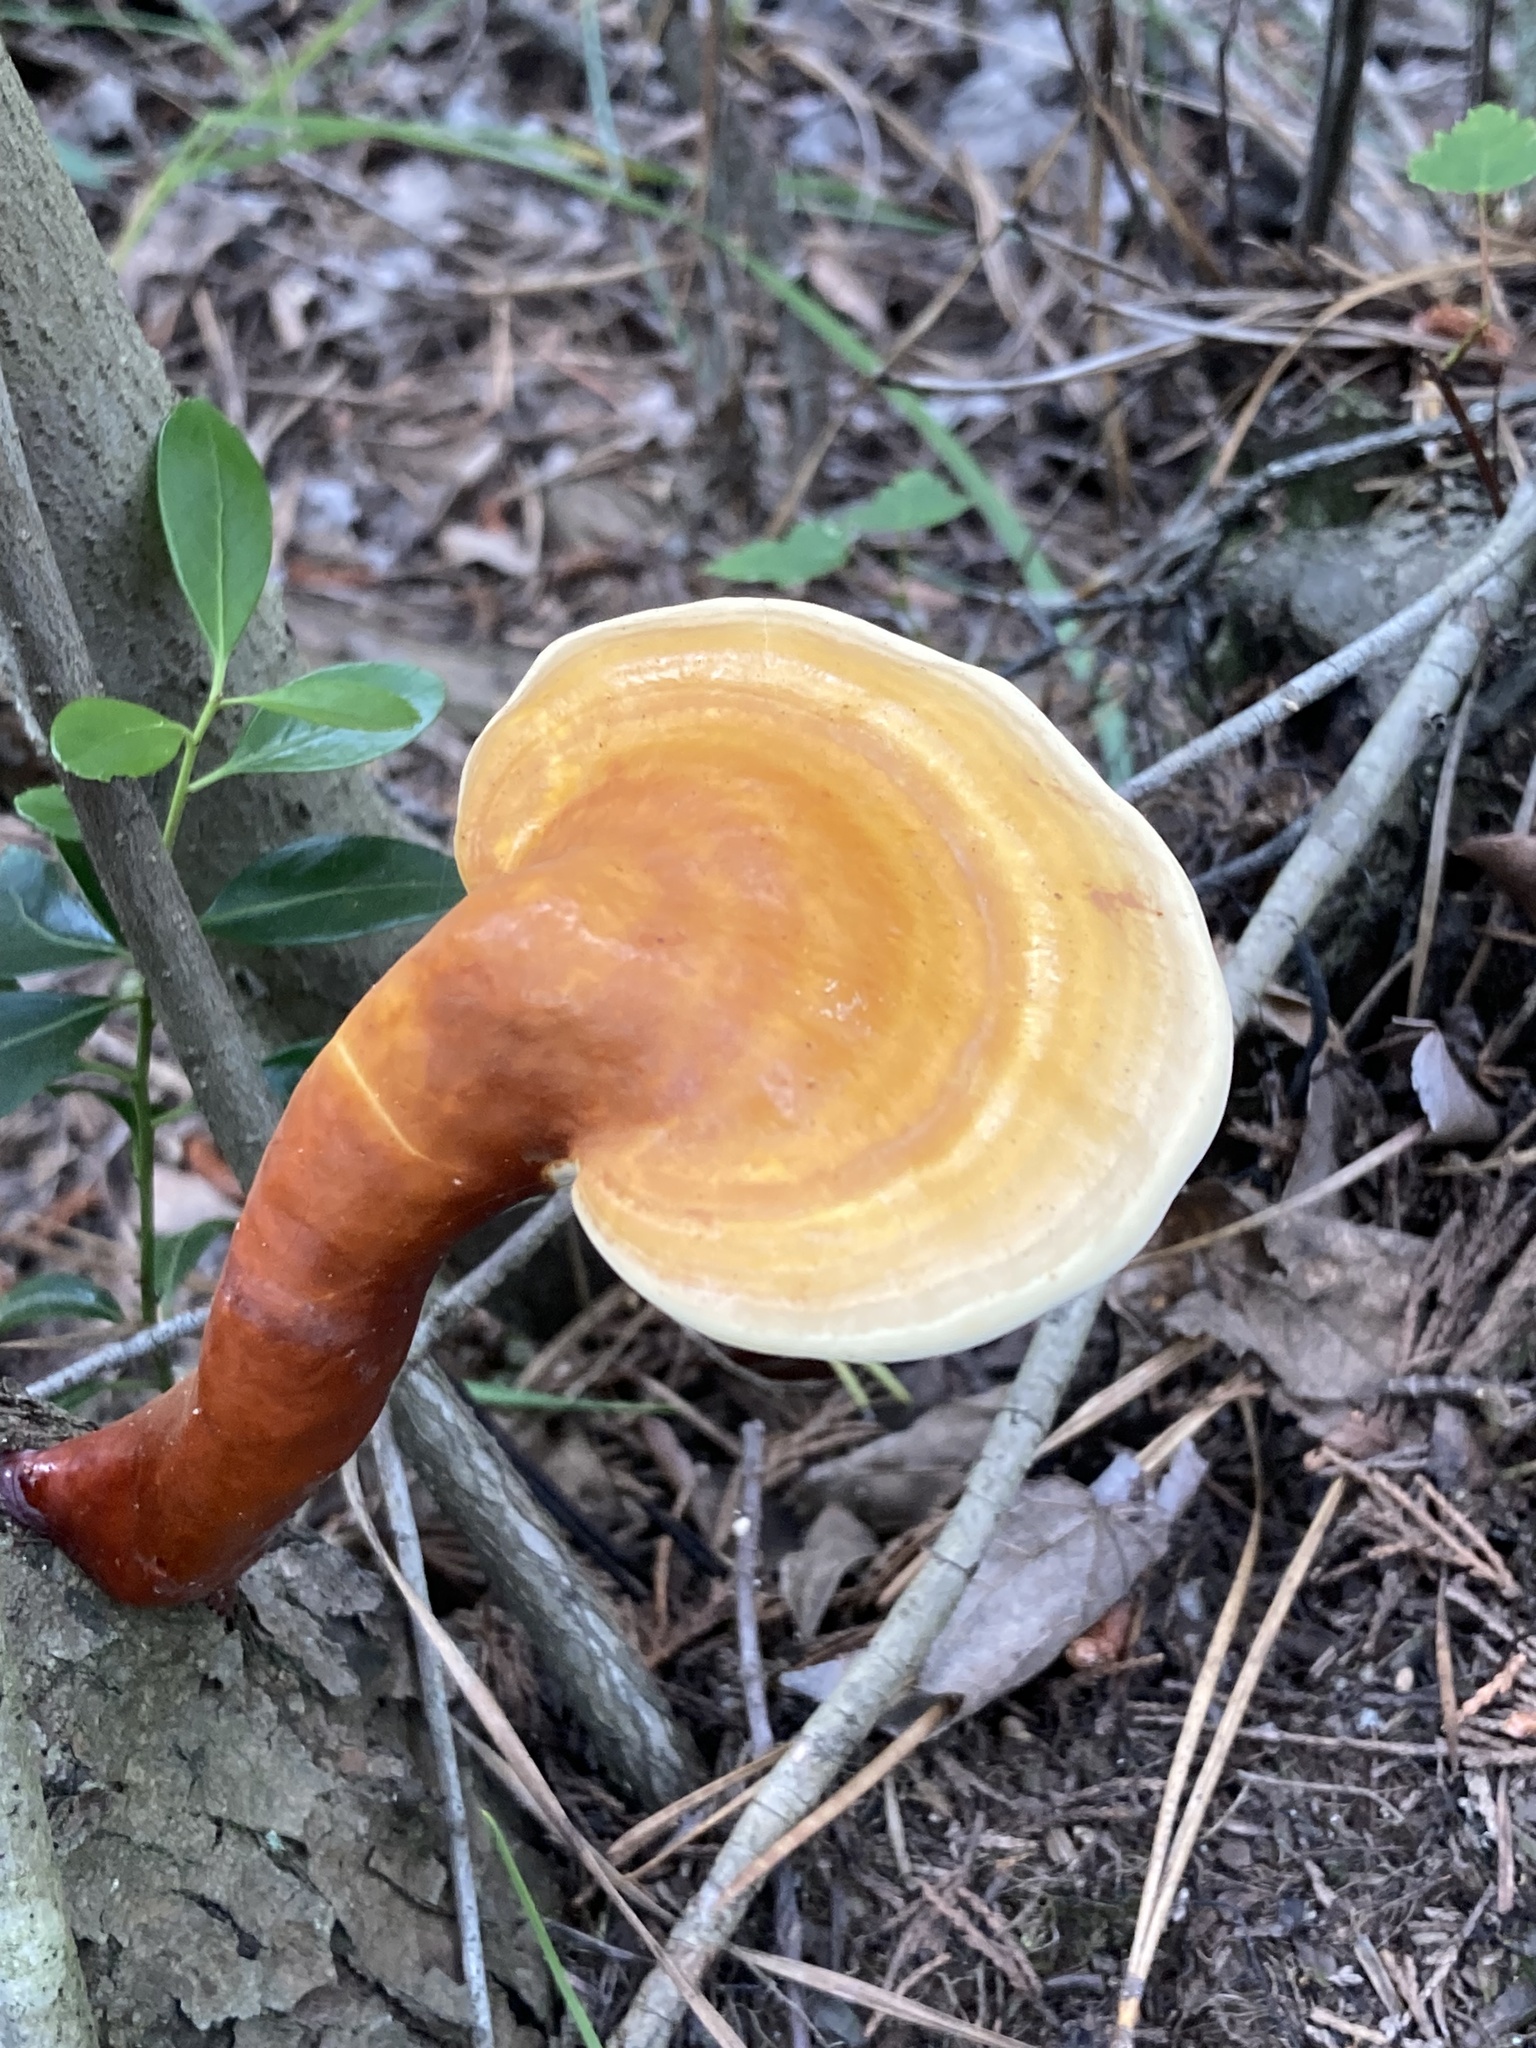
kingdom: Fungi
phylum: Basidiomycota
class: Agaricomycetes
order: Polyporales
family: Polyporaceae
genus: Ganoderma
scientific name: Ganoderma curtisii
